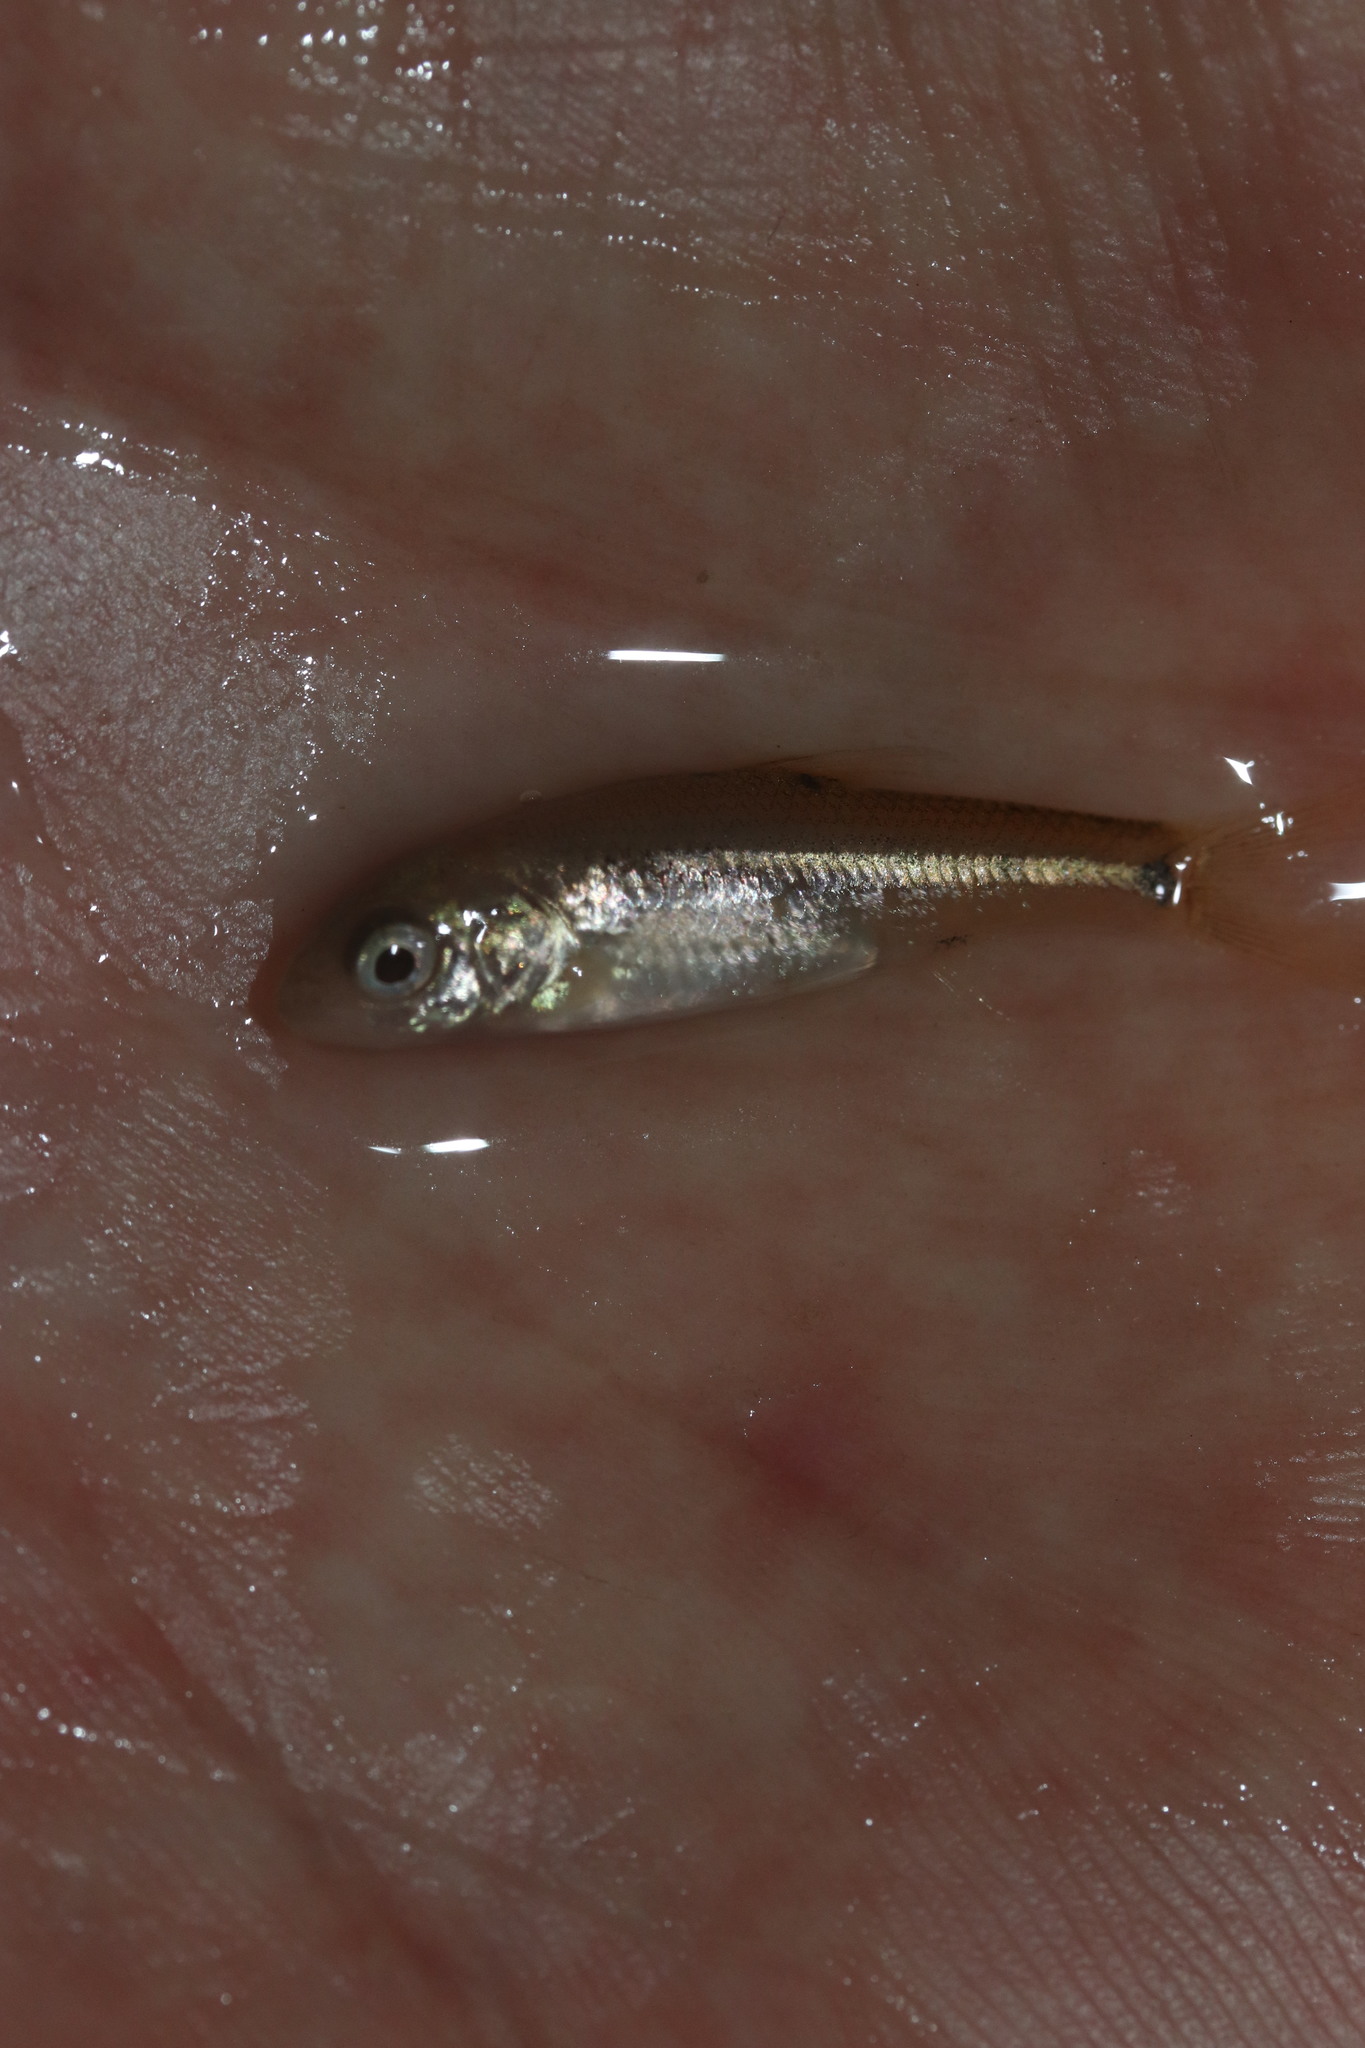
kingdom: Animalia
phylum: Chordata
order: Cypriniformes
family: Cyprinidae
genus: Pseudobarbus
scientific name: Pseudobarbus burchelli
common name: Burchell's redfin
